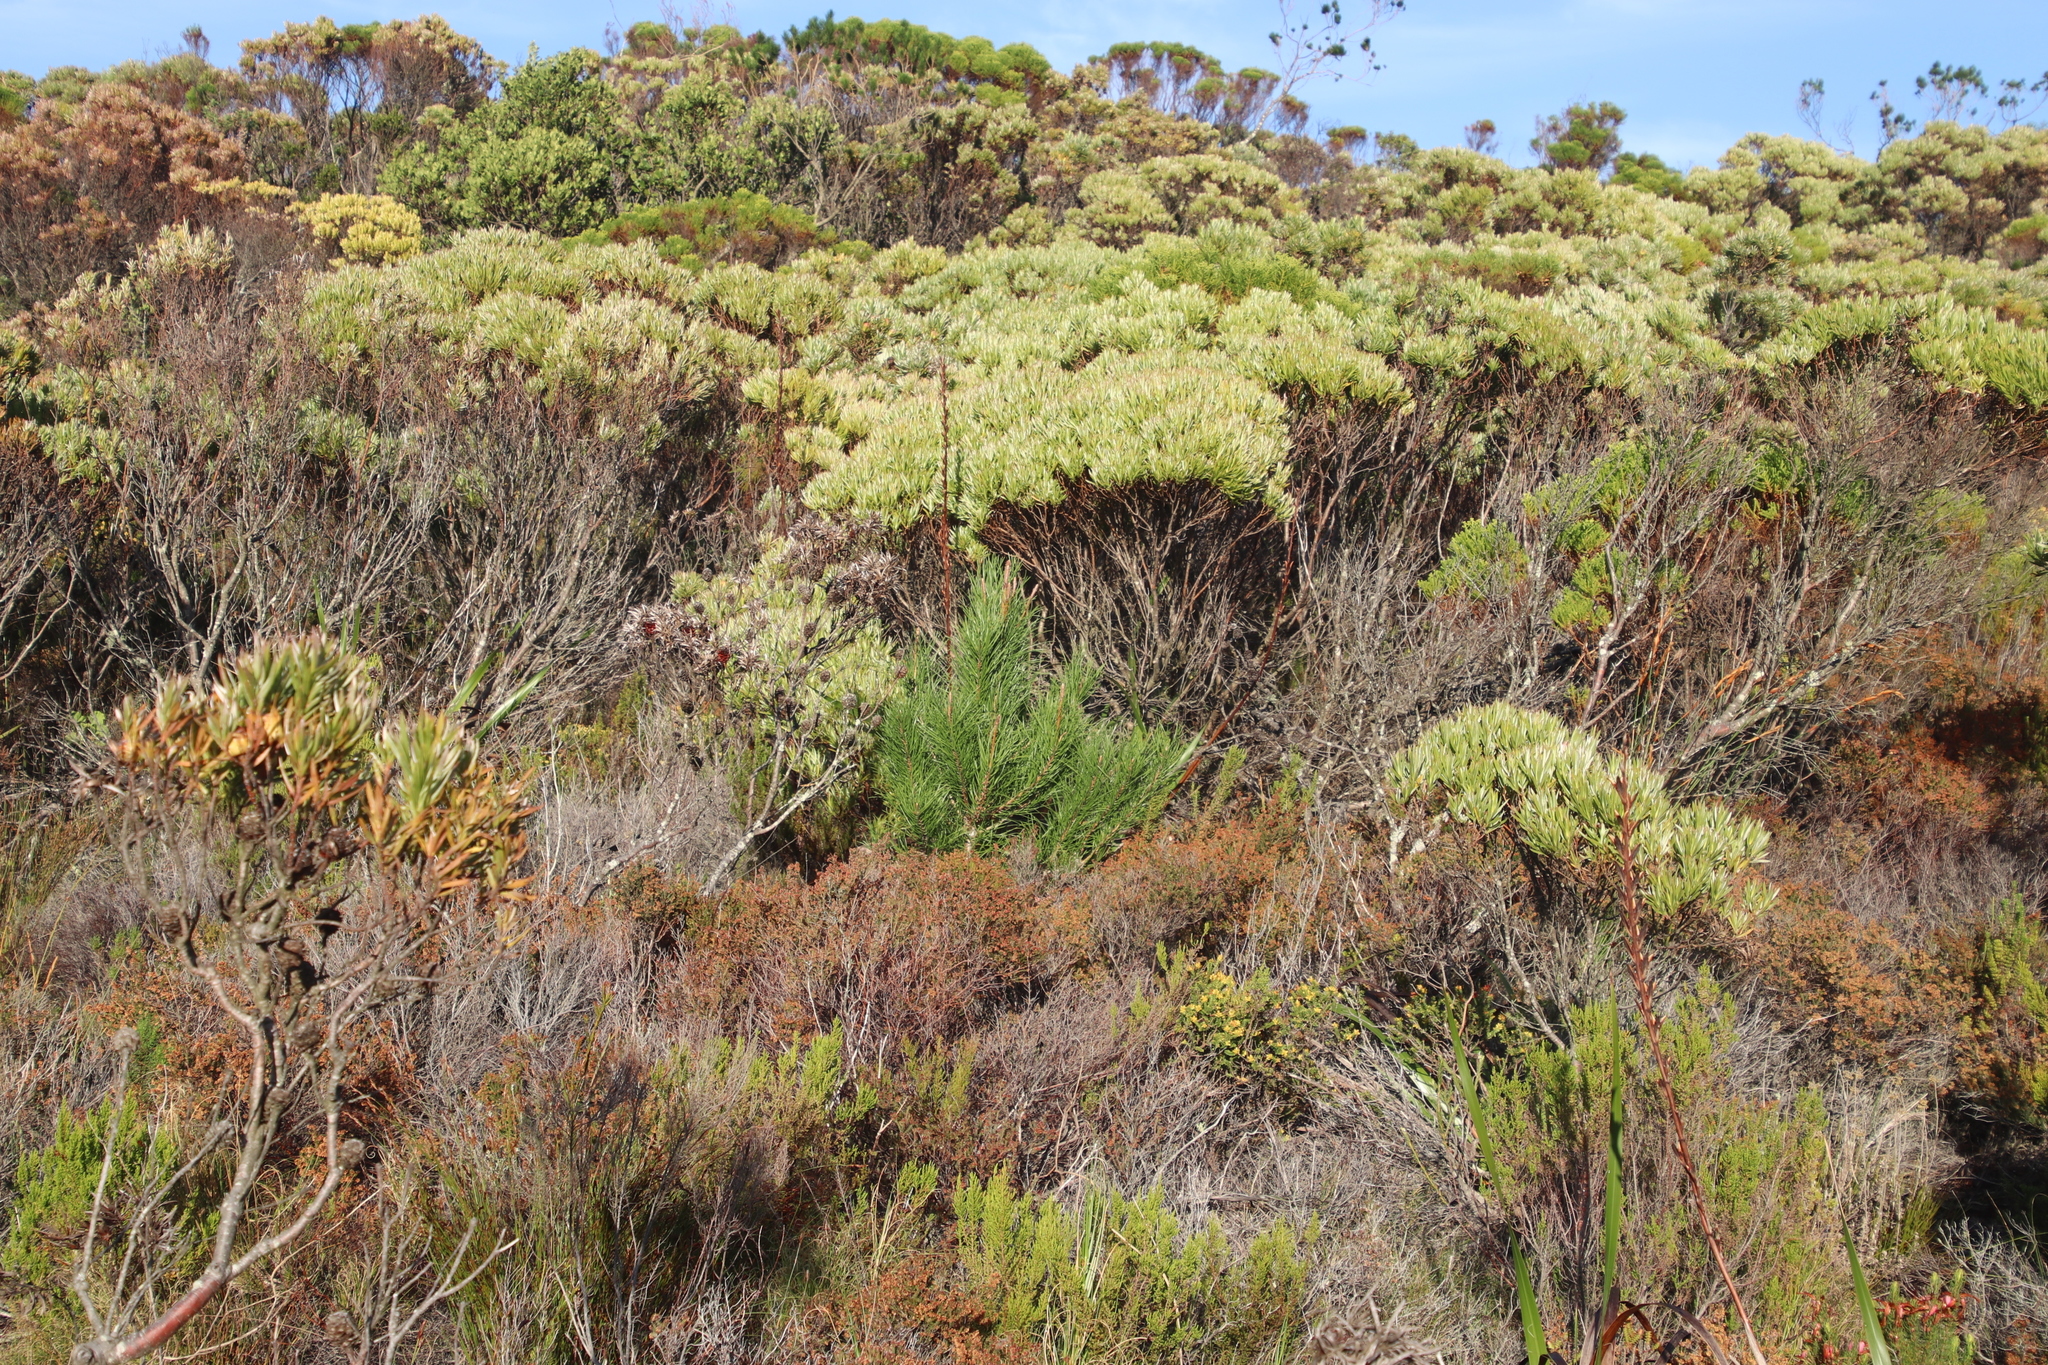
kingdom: Plantae
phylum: Tracheophyta
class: Pinopsida
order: Pinales
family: Pinaceae
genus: Pinus
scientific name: Pinus pinaster
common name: Maritime pine
